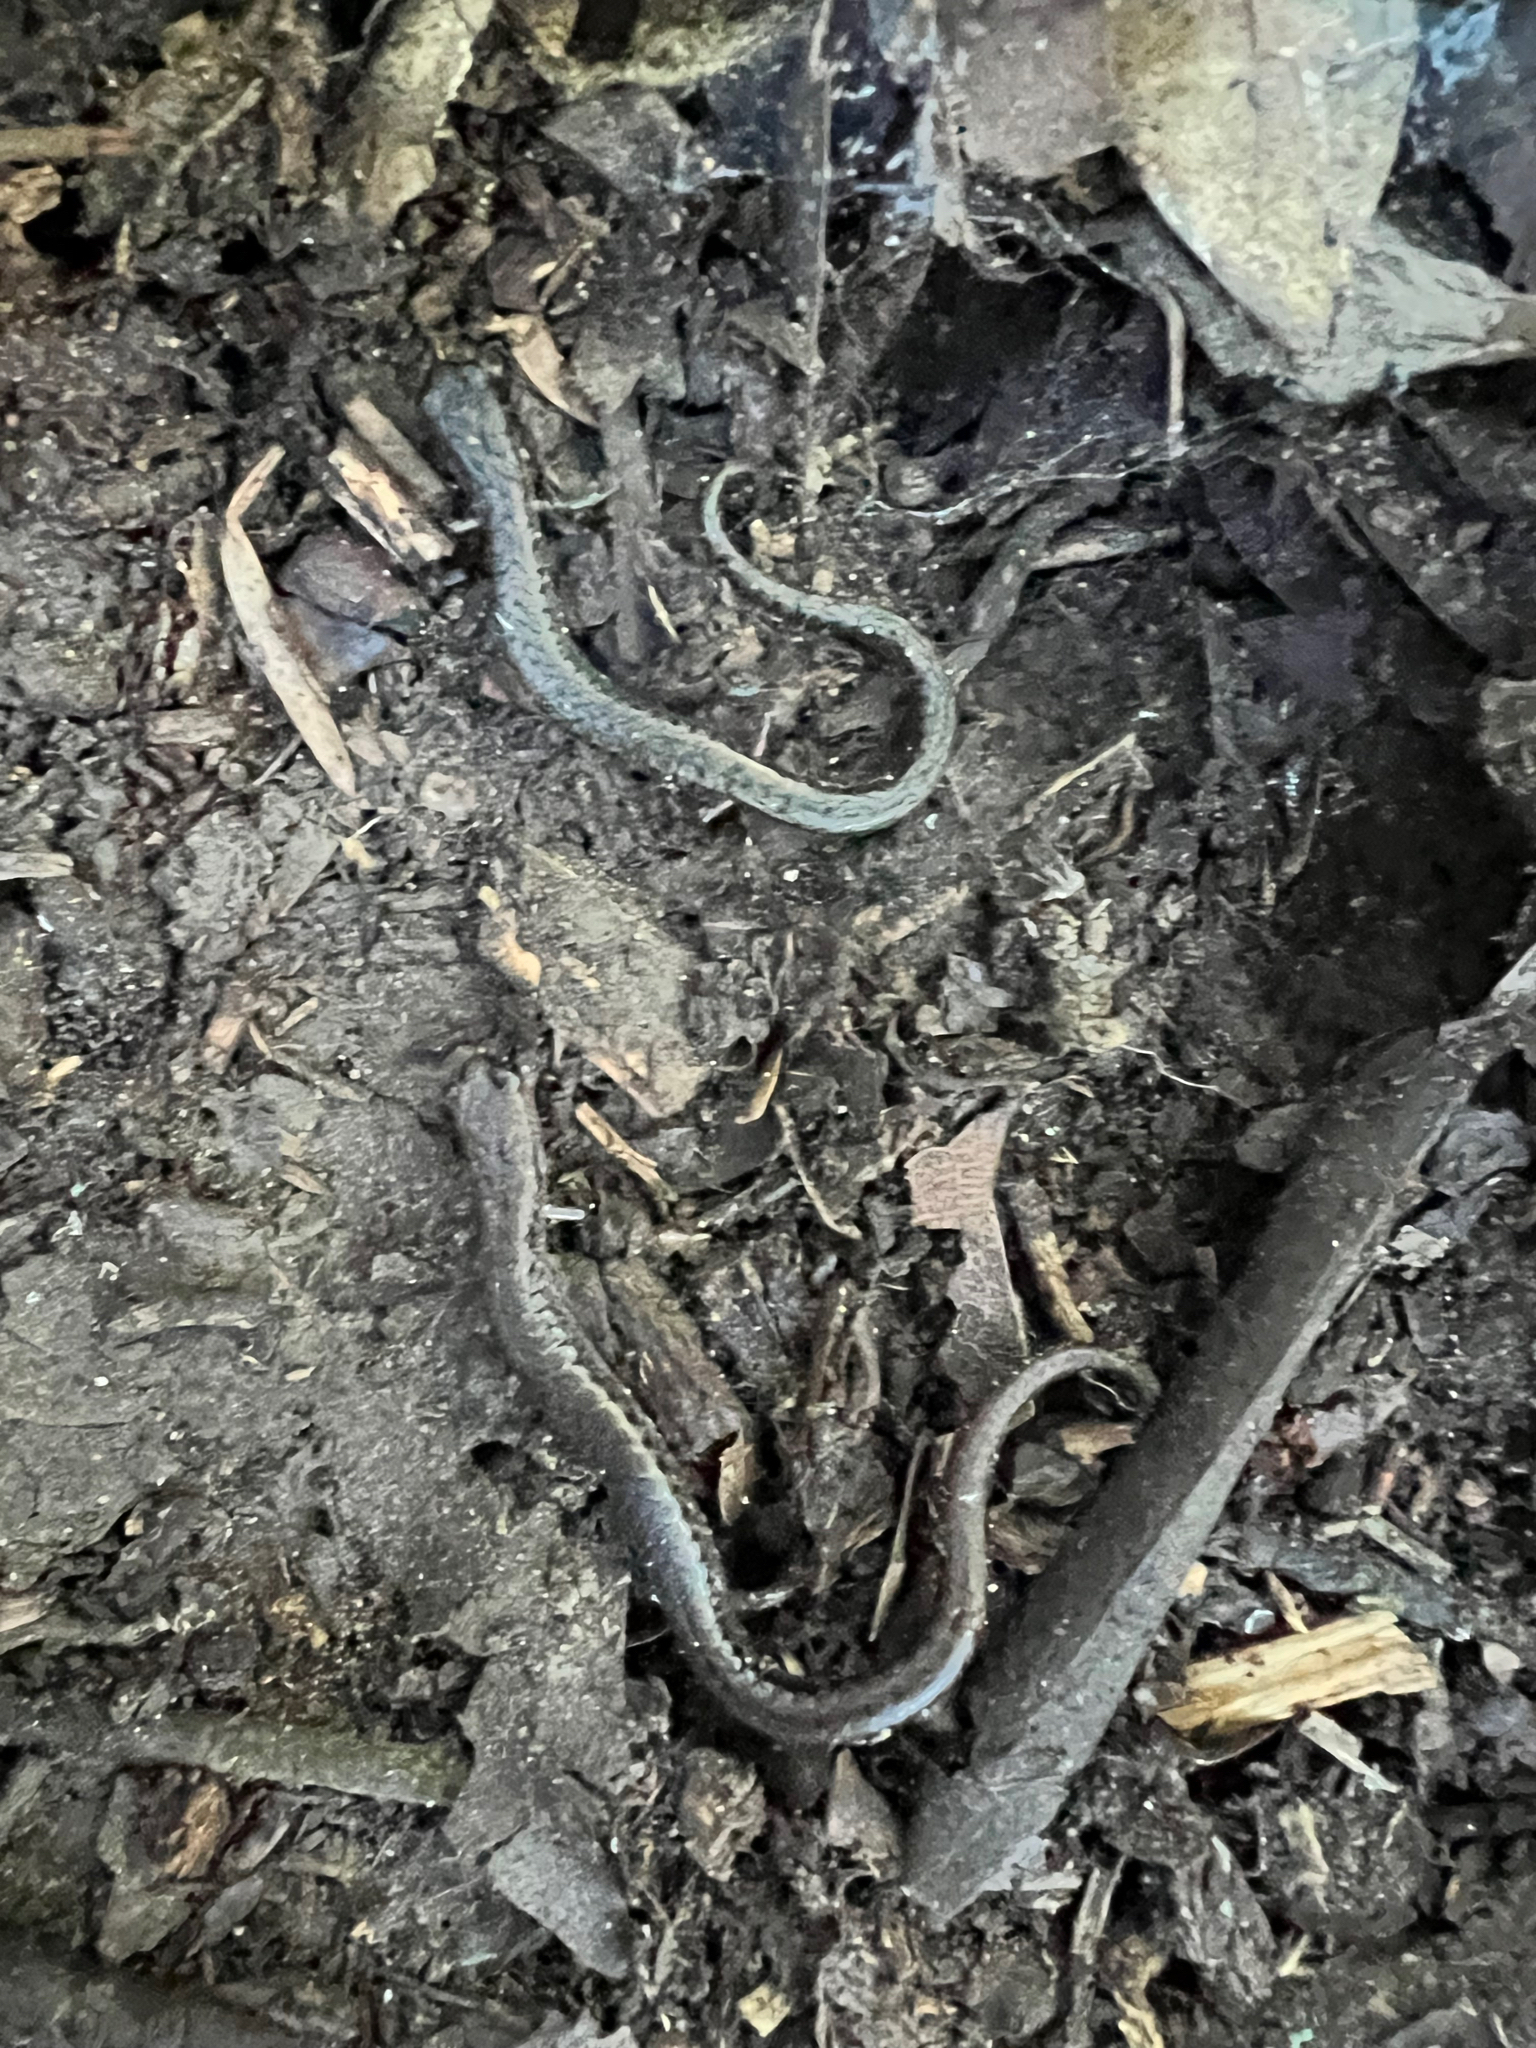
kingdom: Animalia
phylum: Chordata
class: Amphibia
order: Caudata
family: Plethodontidae
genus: Batrachoseps
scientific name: Batrachoseps attenuatus
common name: California slender salamander
